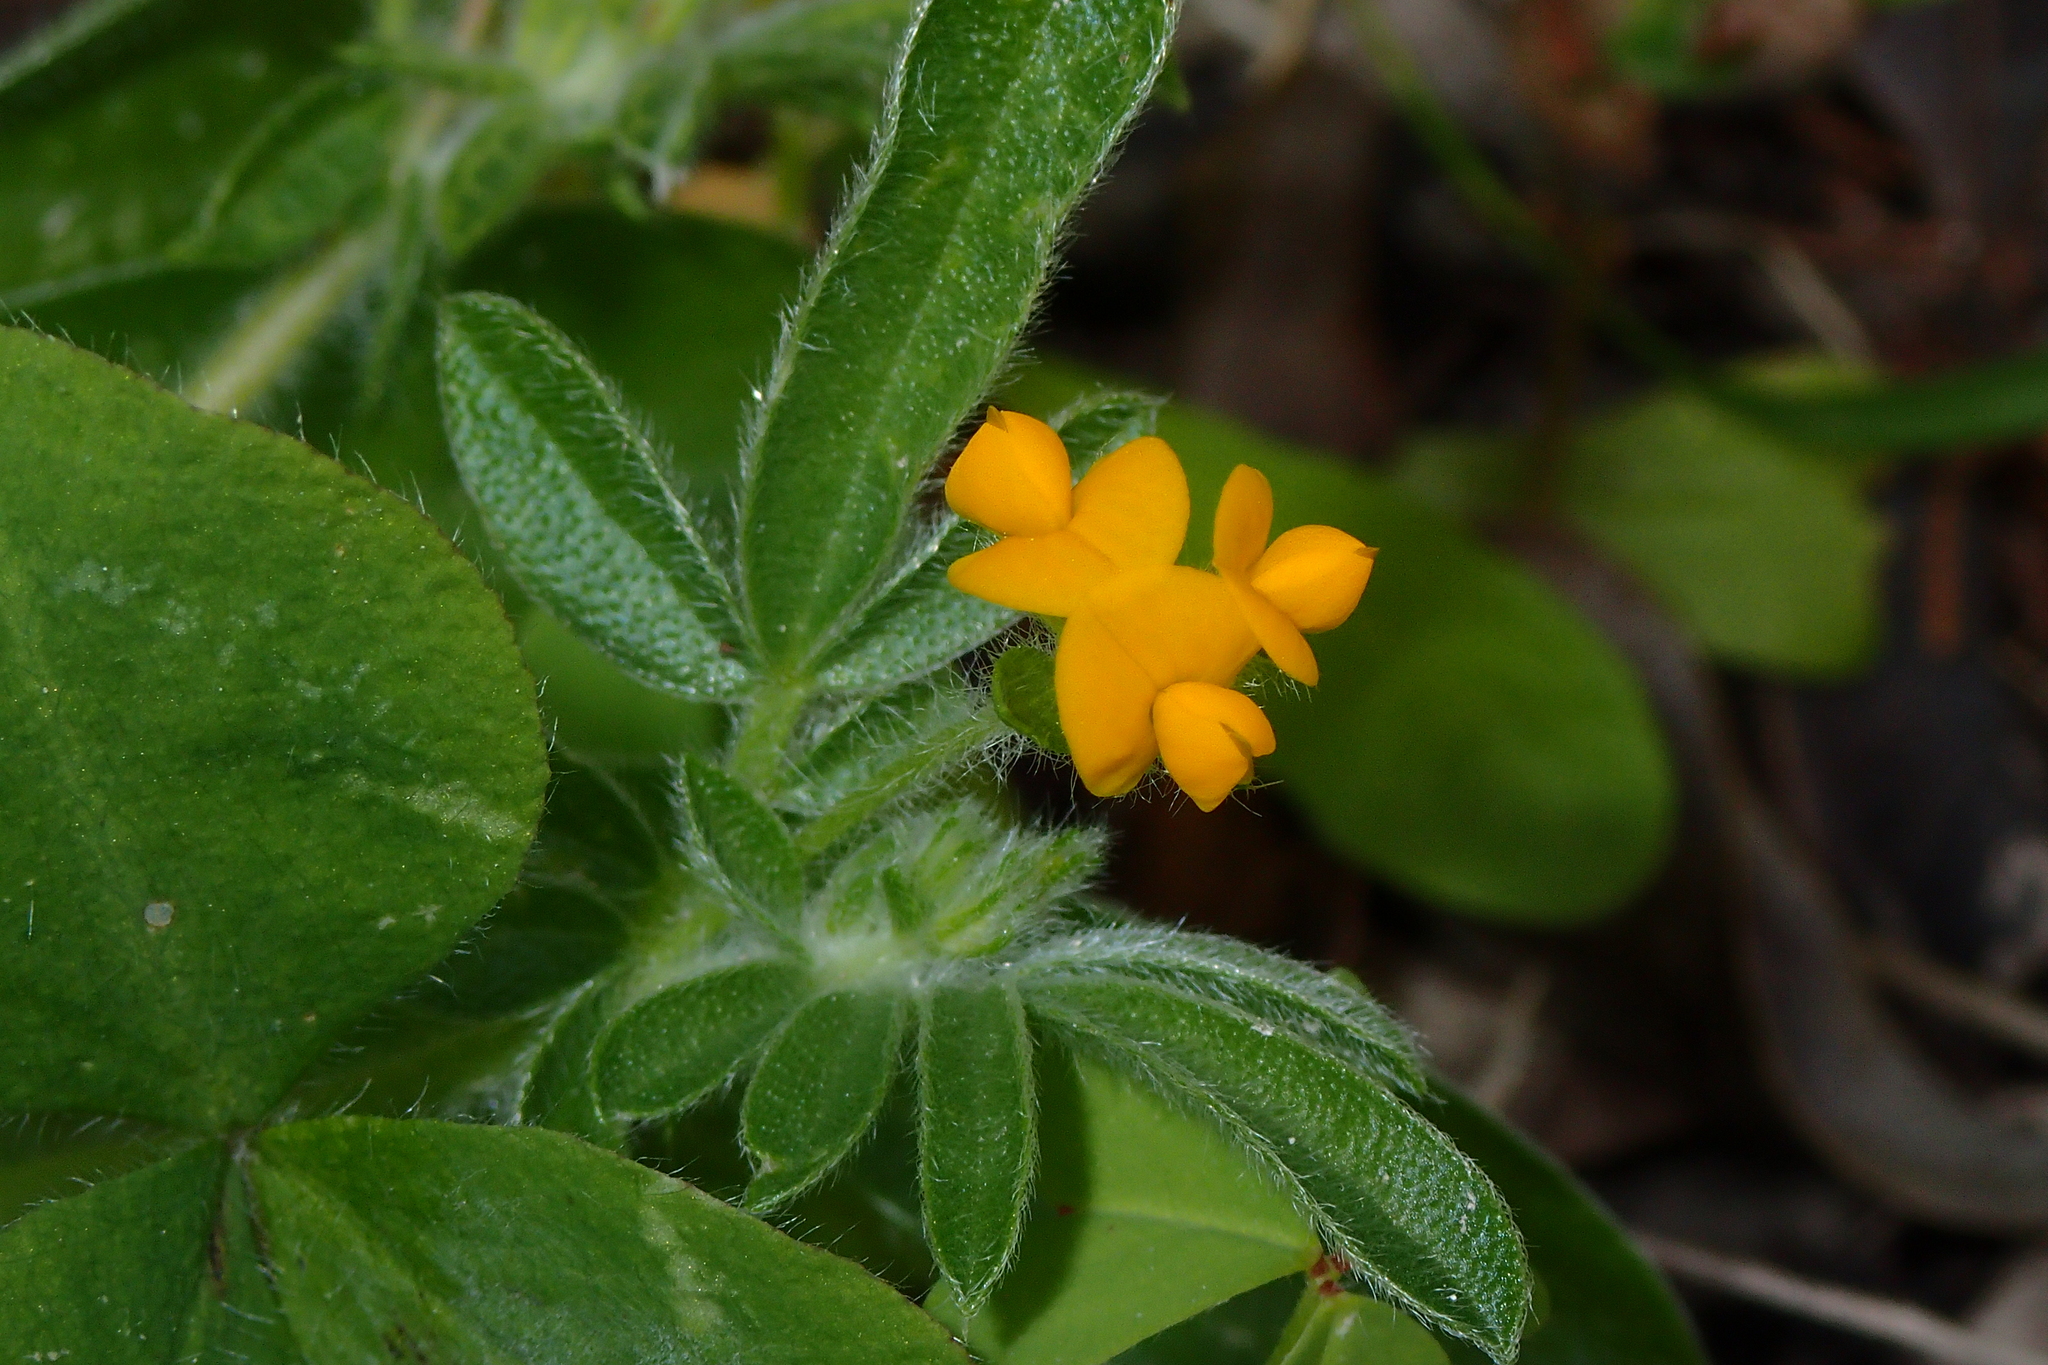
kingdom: Plantae
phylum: Tracheophyta
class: Magnoliopsida
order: Fabales
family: Fabaceae
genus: Anthyllis
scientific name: Anthyllis circinnata
